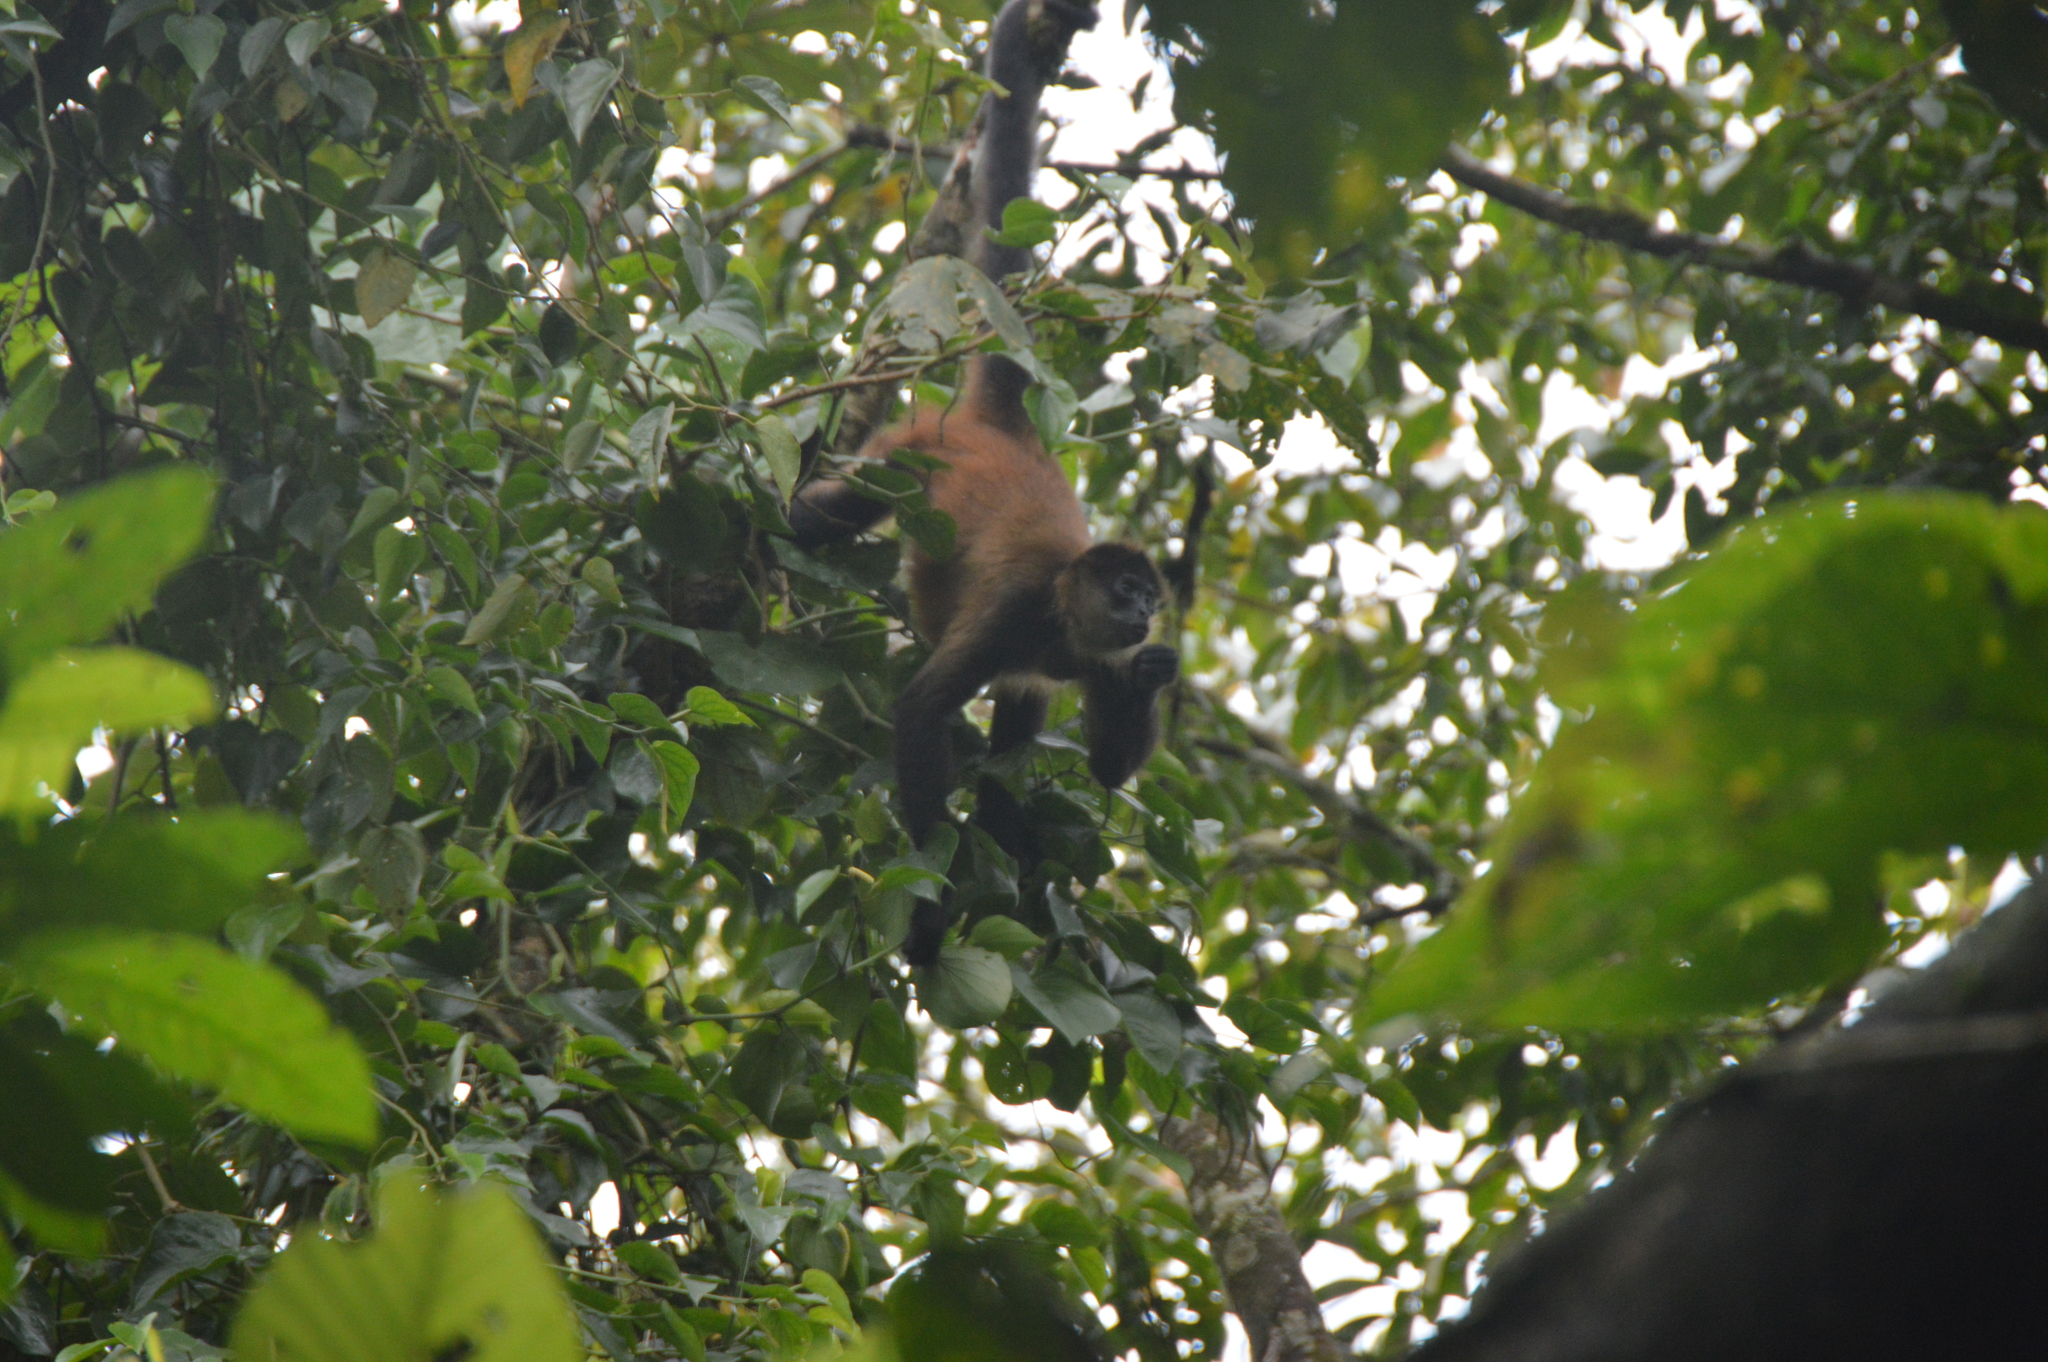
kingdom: Animalia
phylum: Chordata
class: Mammalia
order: Primates
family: Atelidae
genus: Ateles
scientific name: Ateles geoffroyi
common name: Black-handed spider monkey
